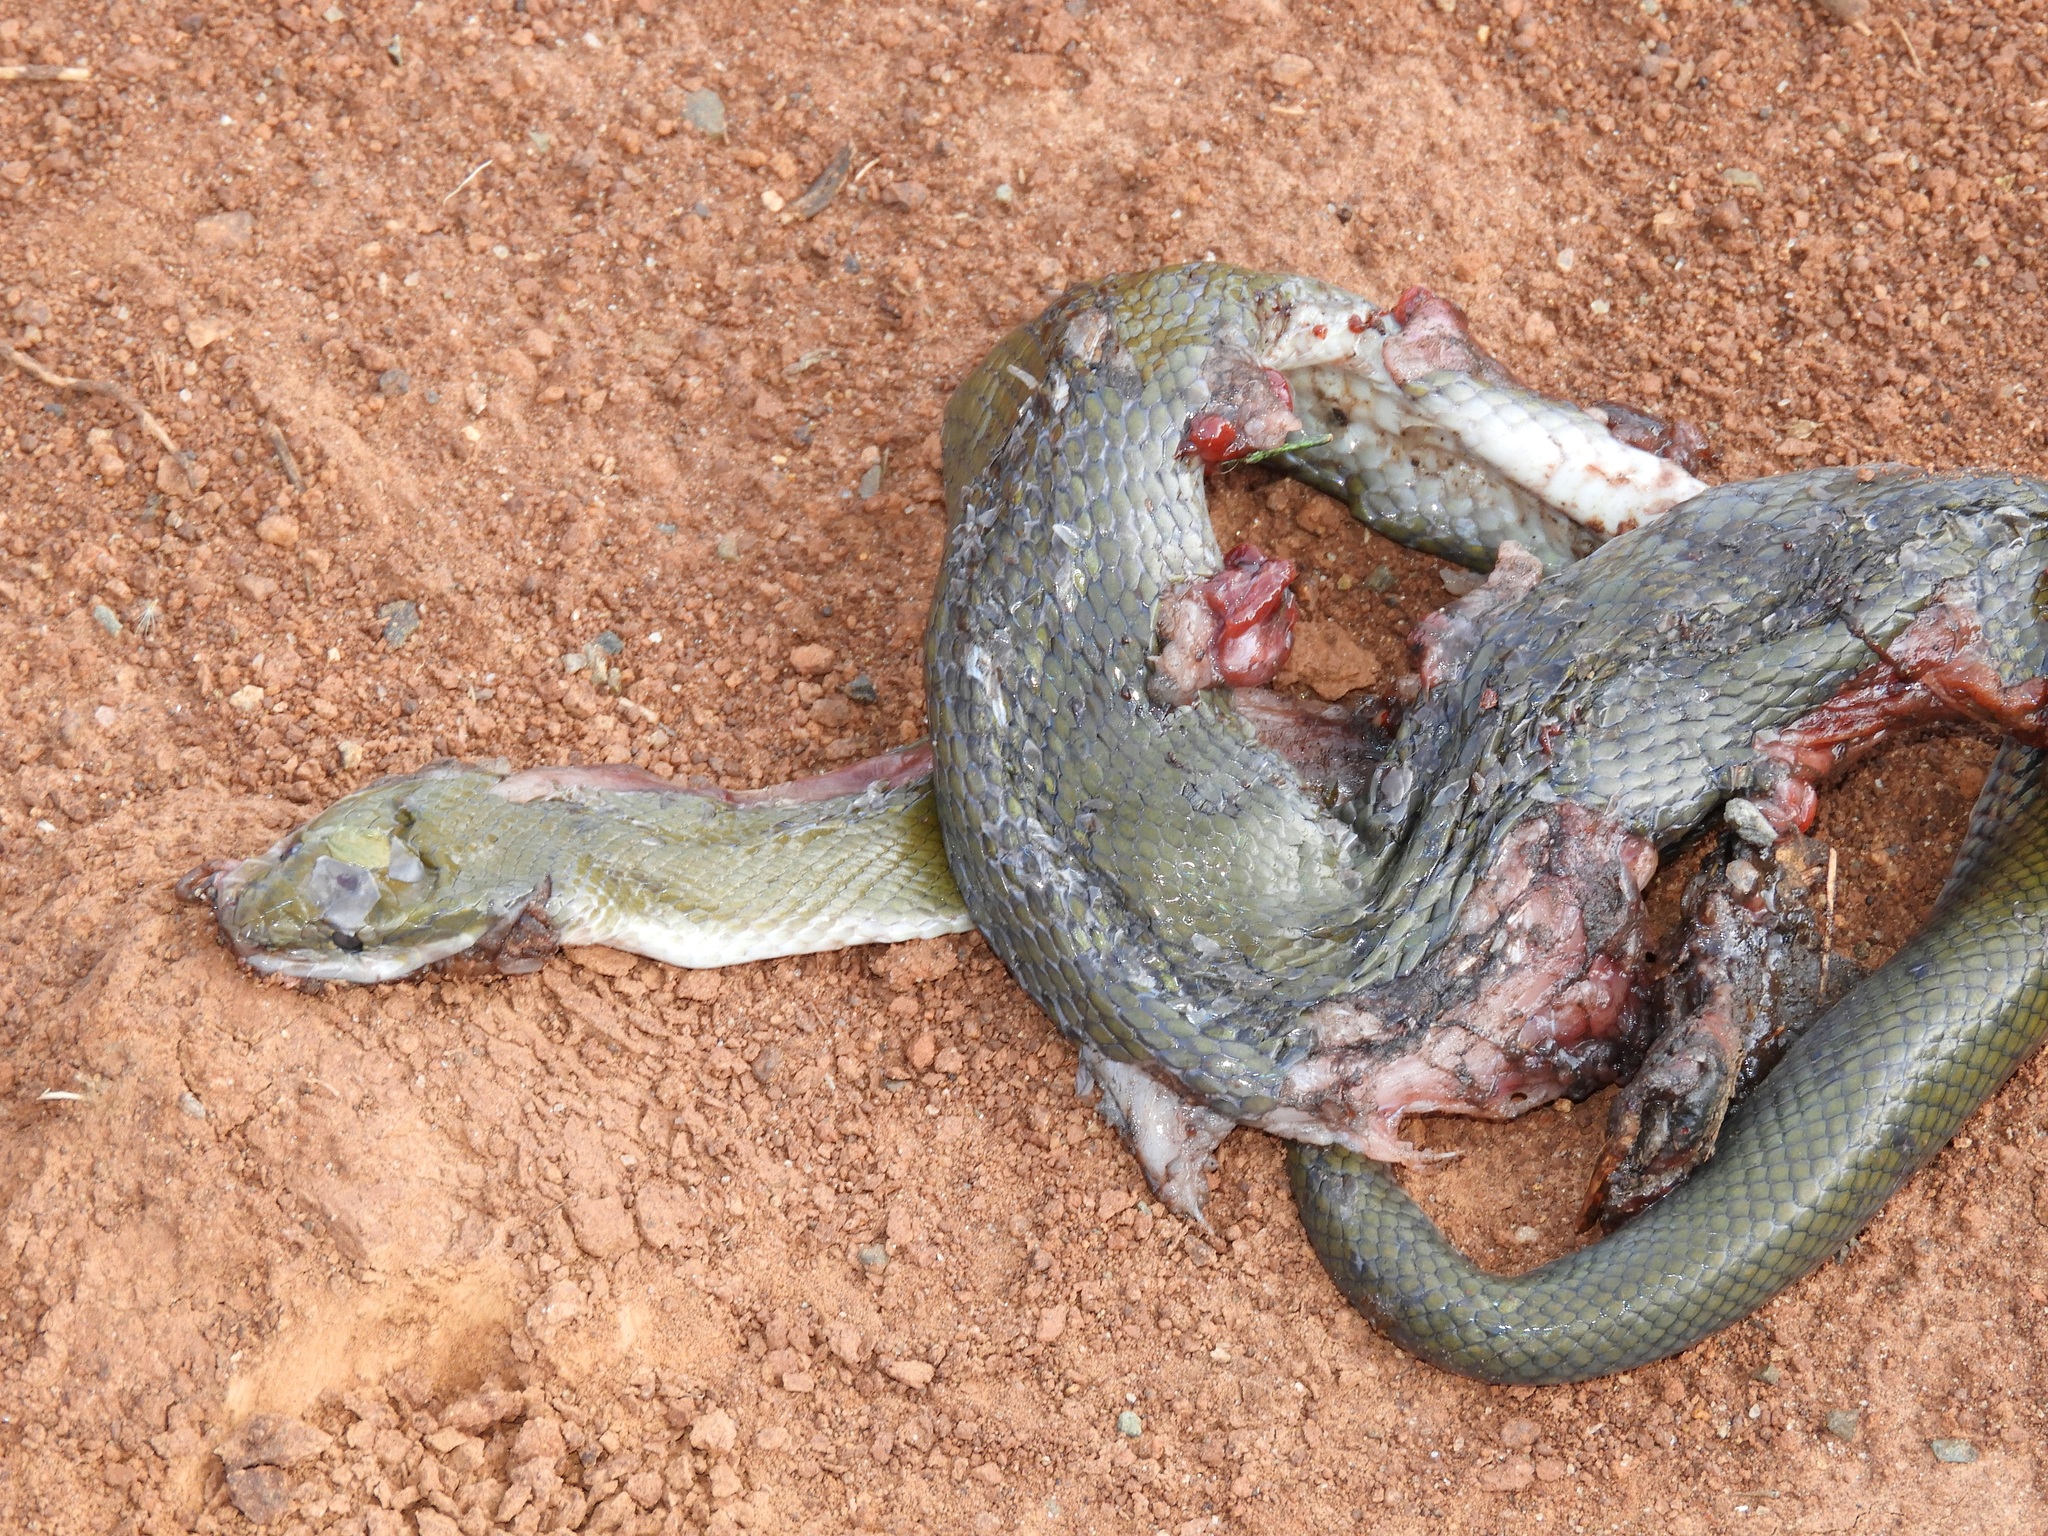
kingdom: Animalia
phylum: Chordata
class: Squamata
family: Lamprophiidae
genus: Boaedon
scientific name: Boaedon fuliginosus
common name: African house snake
